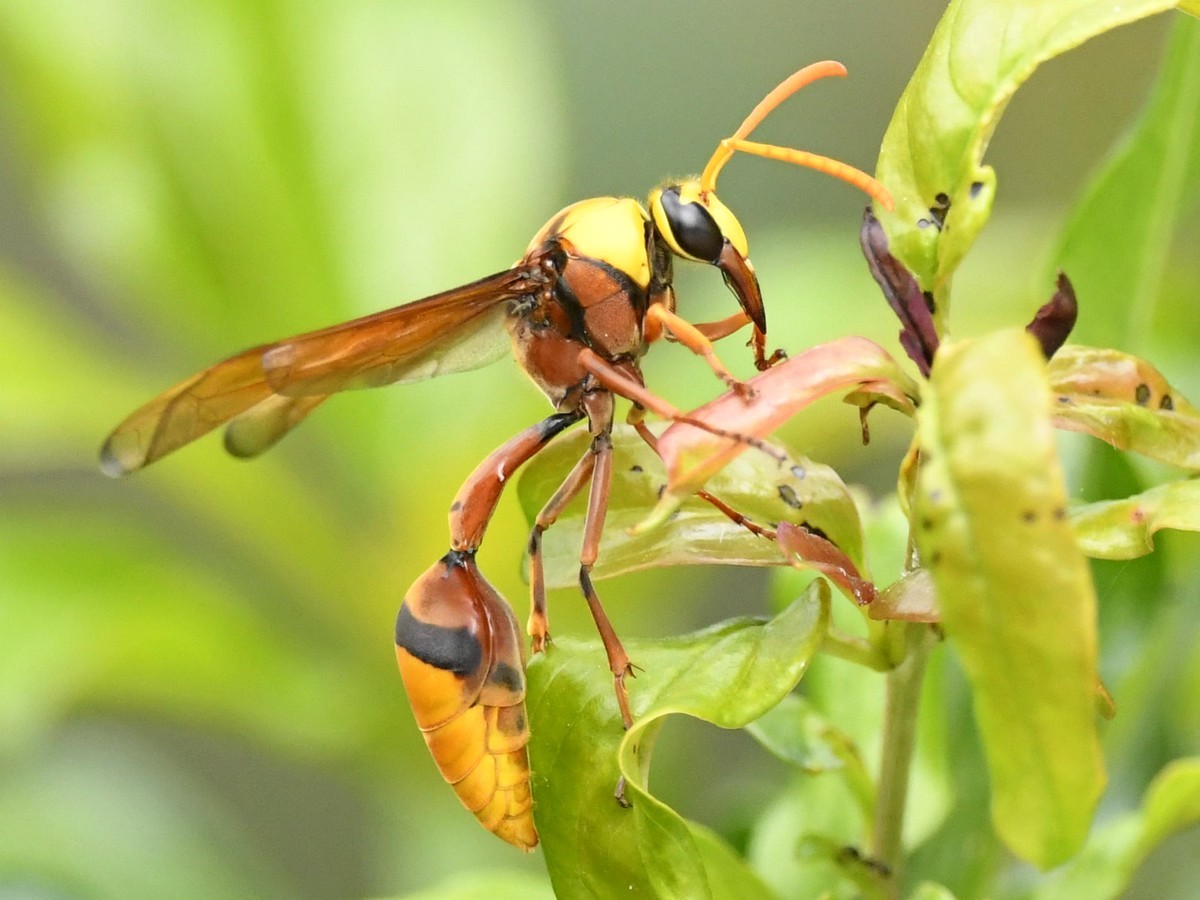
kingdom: Animalia
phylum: Arthropoda
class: Insecta
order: Hymenoptera
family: Eumenidae
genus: Delta
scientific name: Delta pyriforme
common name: Wasp
